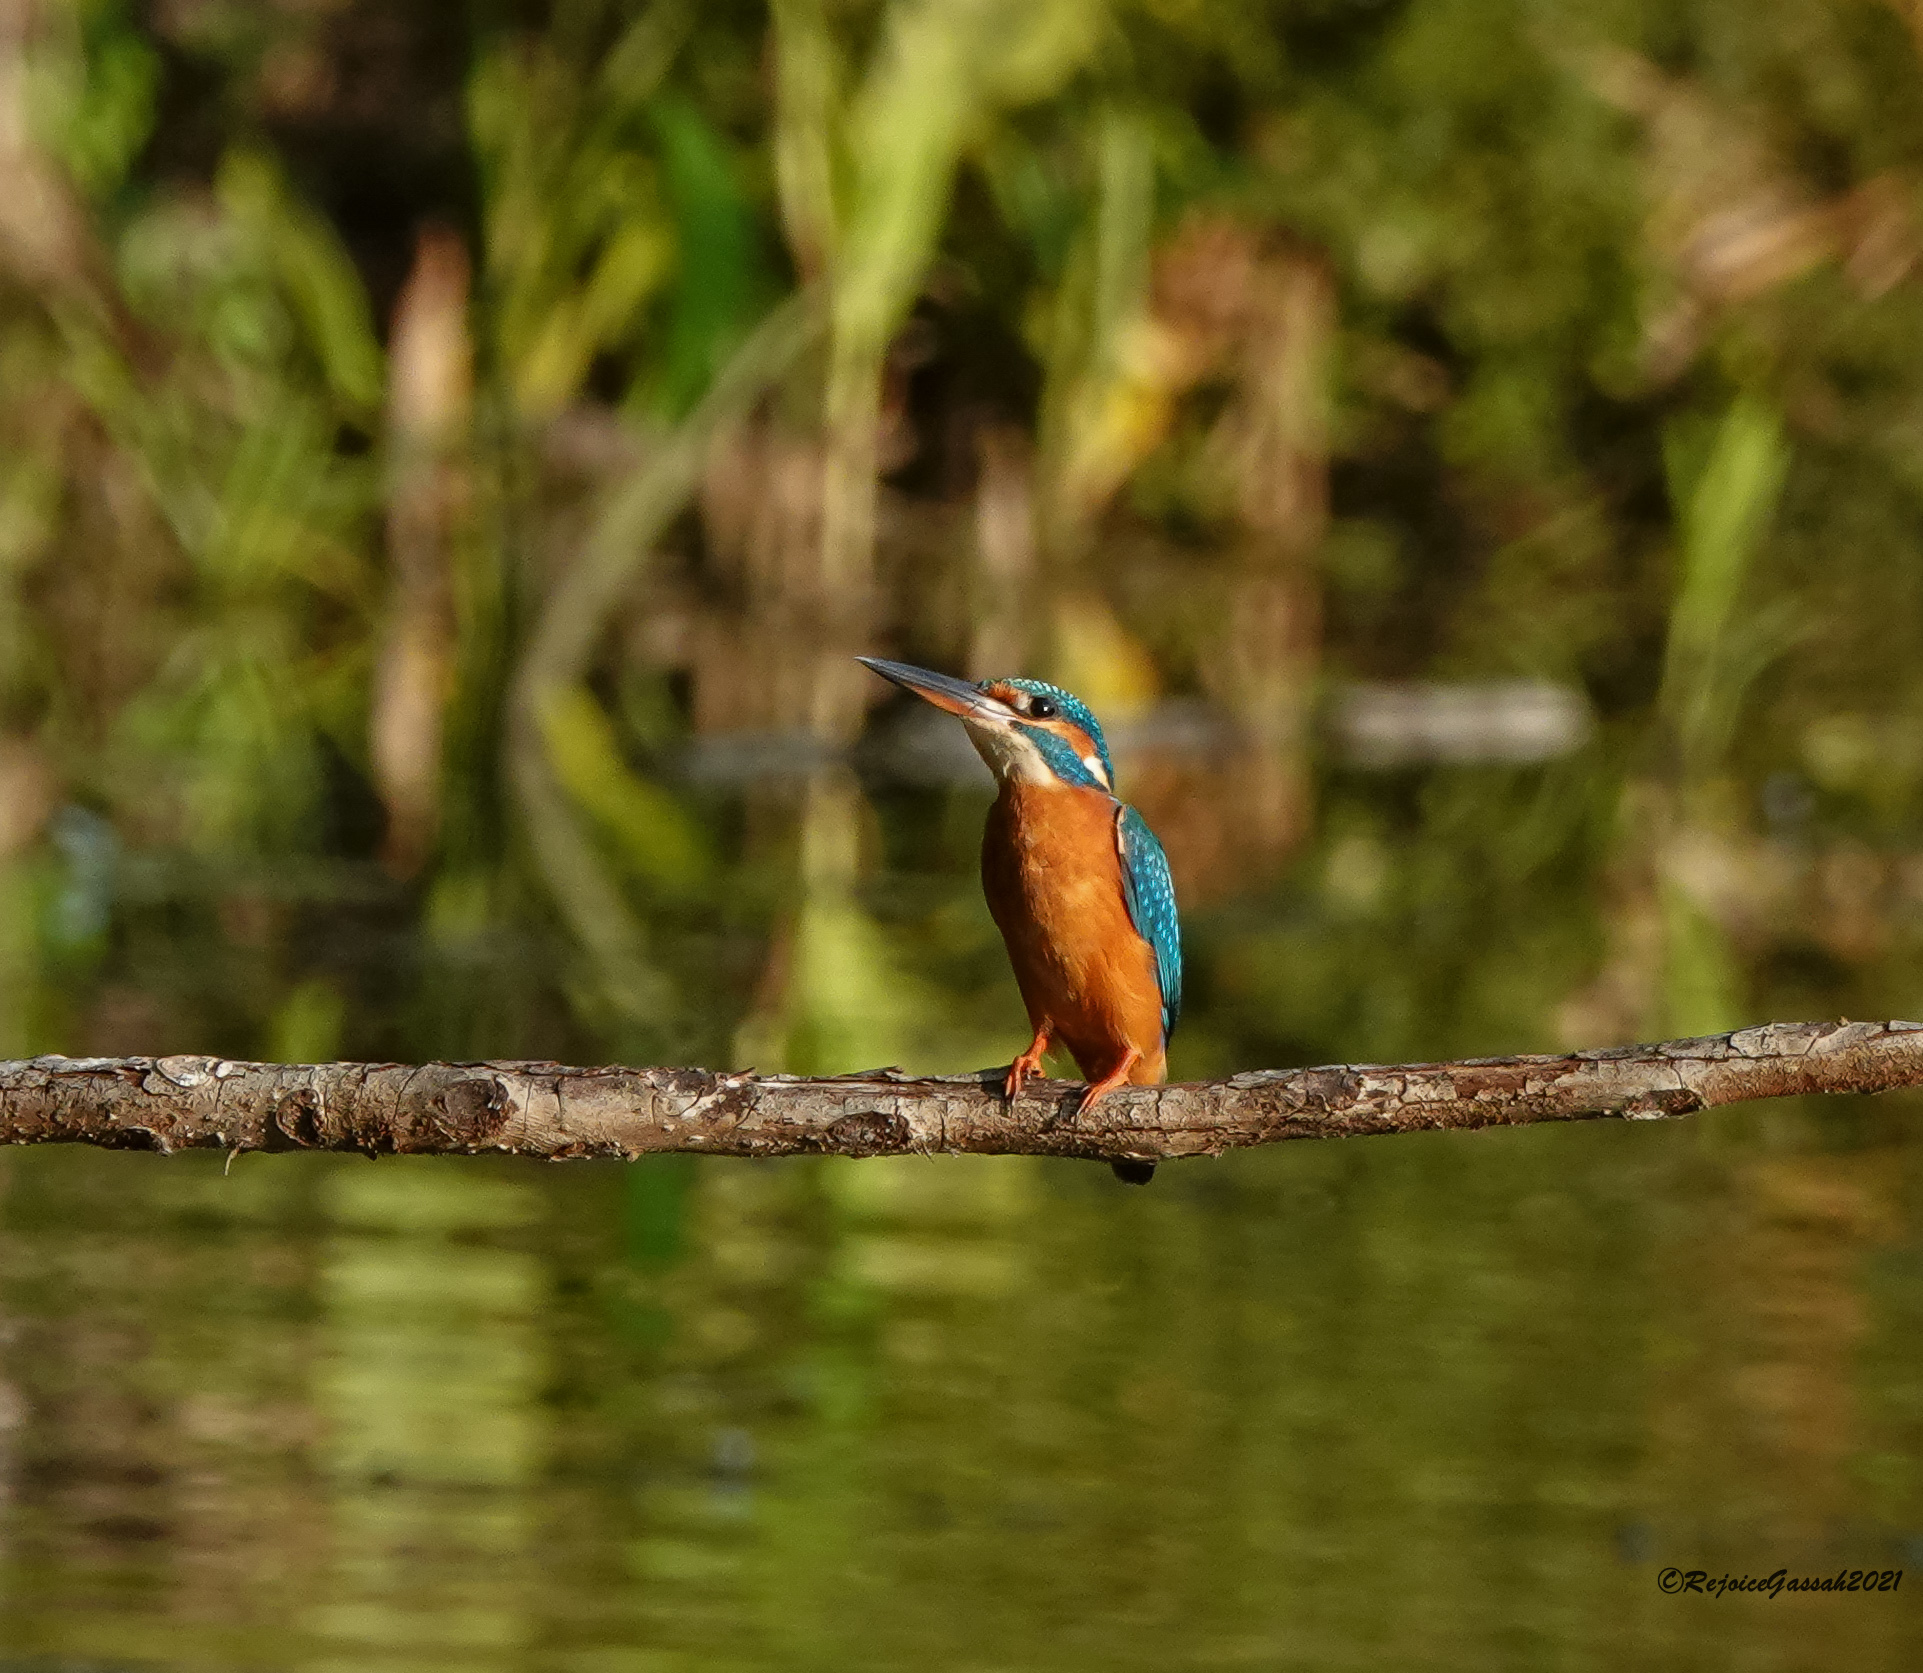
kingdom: Animalia
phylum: Chordata
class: Aves
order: Coraciiformes
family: Alcedinidae
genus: Alcedo
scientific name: Alcedo atthis
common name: Common kingfisher
